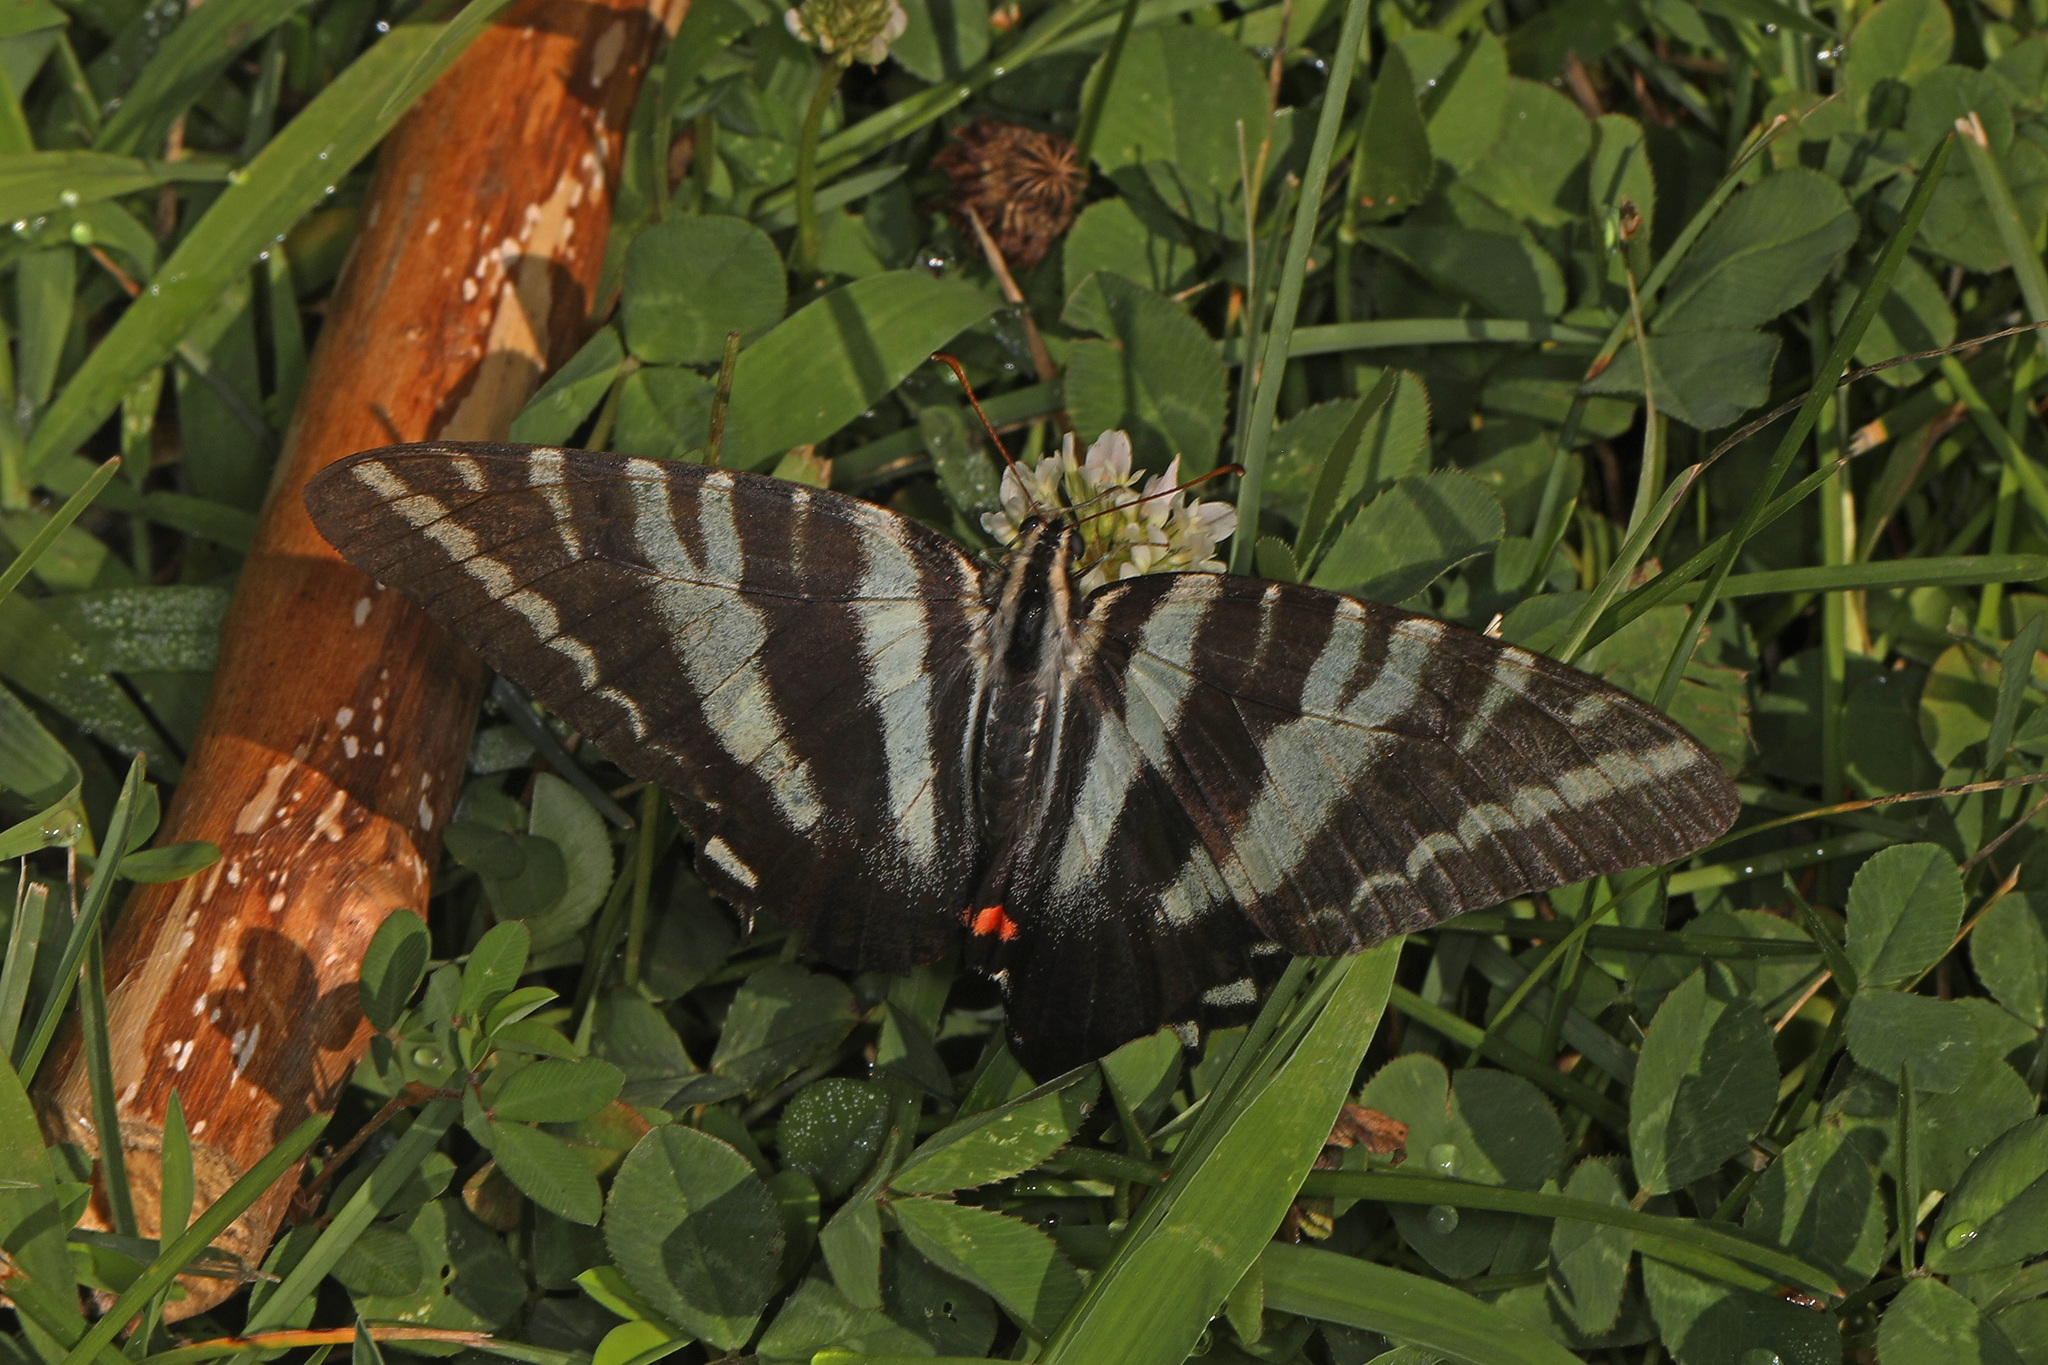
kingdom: Animalia
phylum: Arthropoda
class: Insecta
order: Lepidoptera
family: Papilionidae
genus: Protographium
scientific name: Protographium marcellus
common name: Zebra swallowtail
